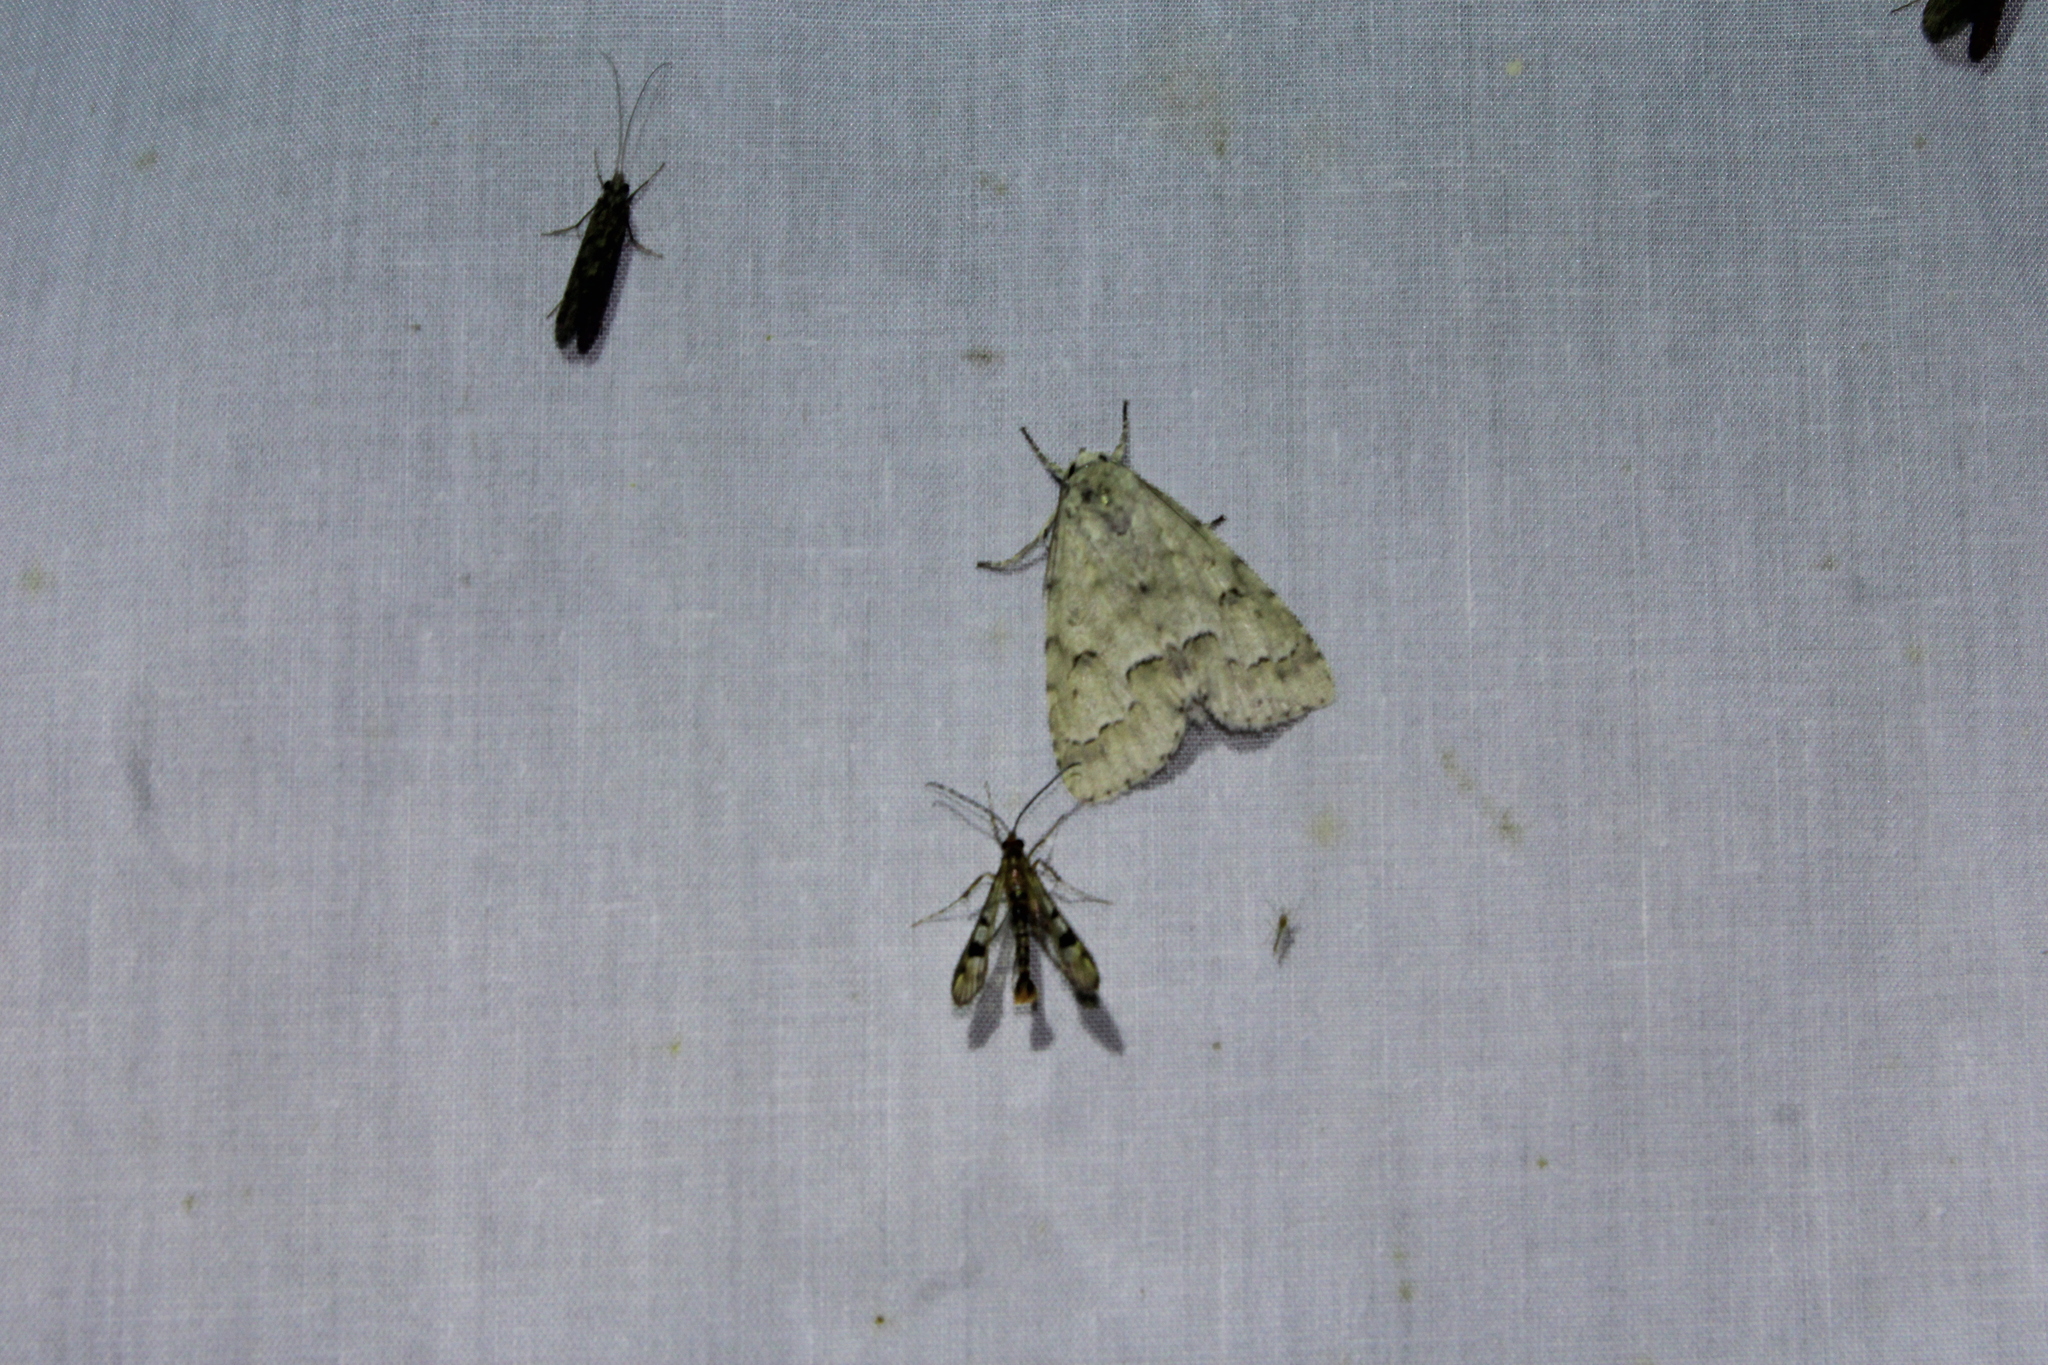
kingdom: Animalia
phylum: Arthropoda
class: Insecta
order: Lepidoptera
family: Sesiidae
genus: Synanthedon
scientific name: Synanthedon acerni
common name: Maple callus borer moth
